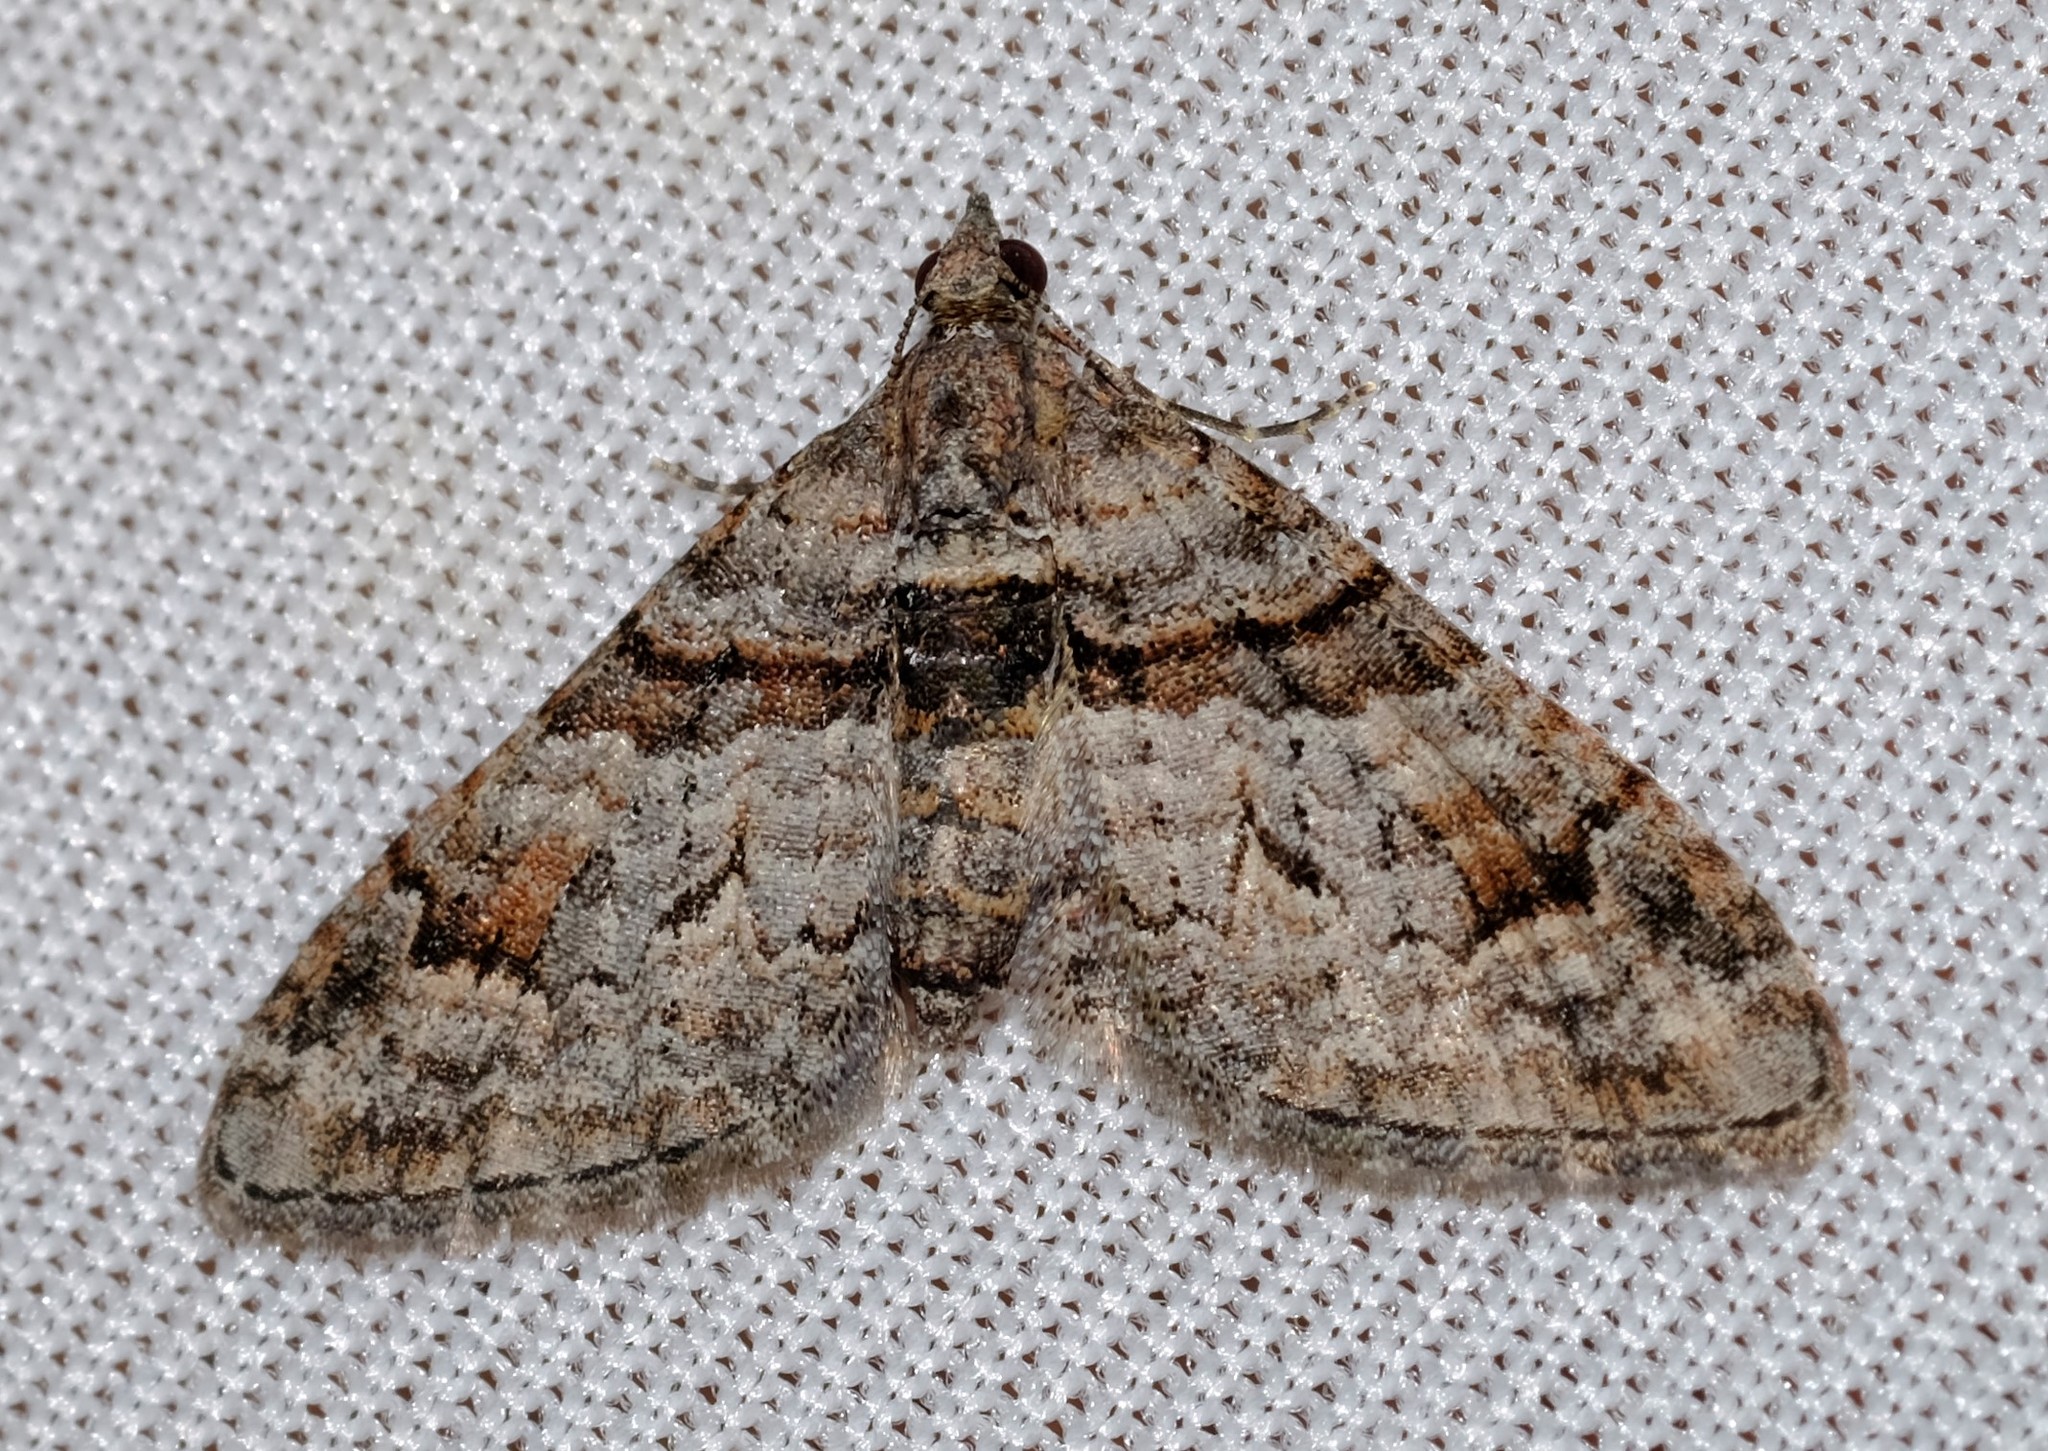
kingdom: Animalia
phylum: Arthropoda
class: Insecta
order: Lepidoptera
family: Geometridae
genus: Phrissogonus
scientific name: Phrissogonus laticostata
